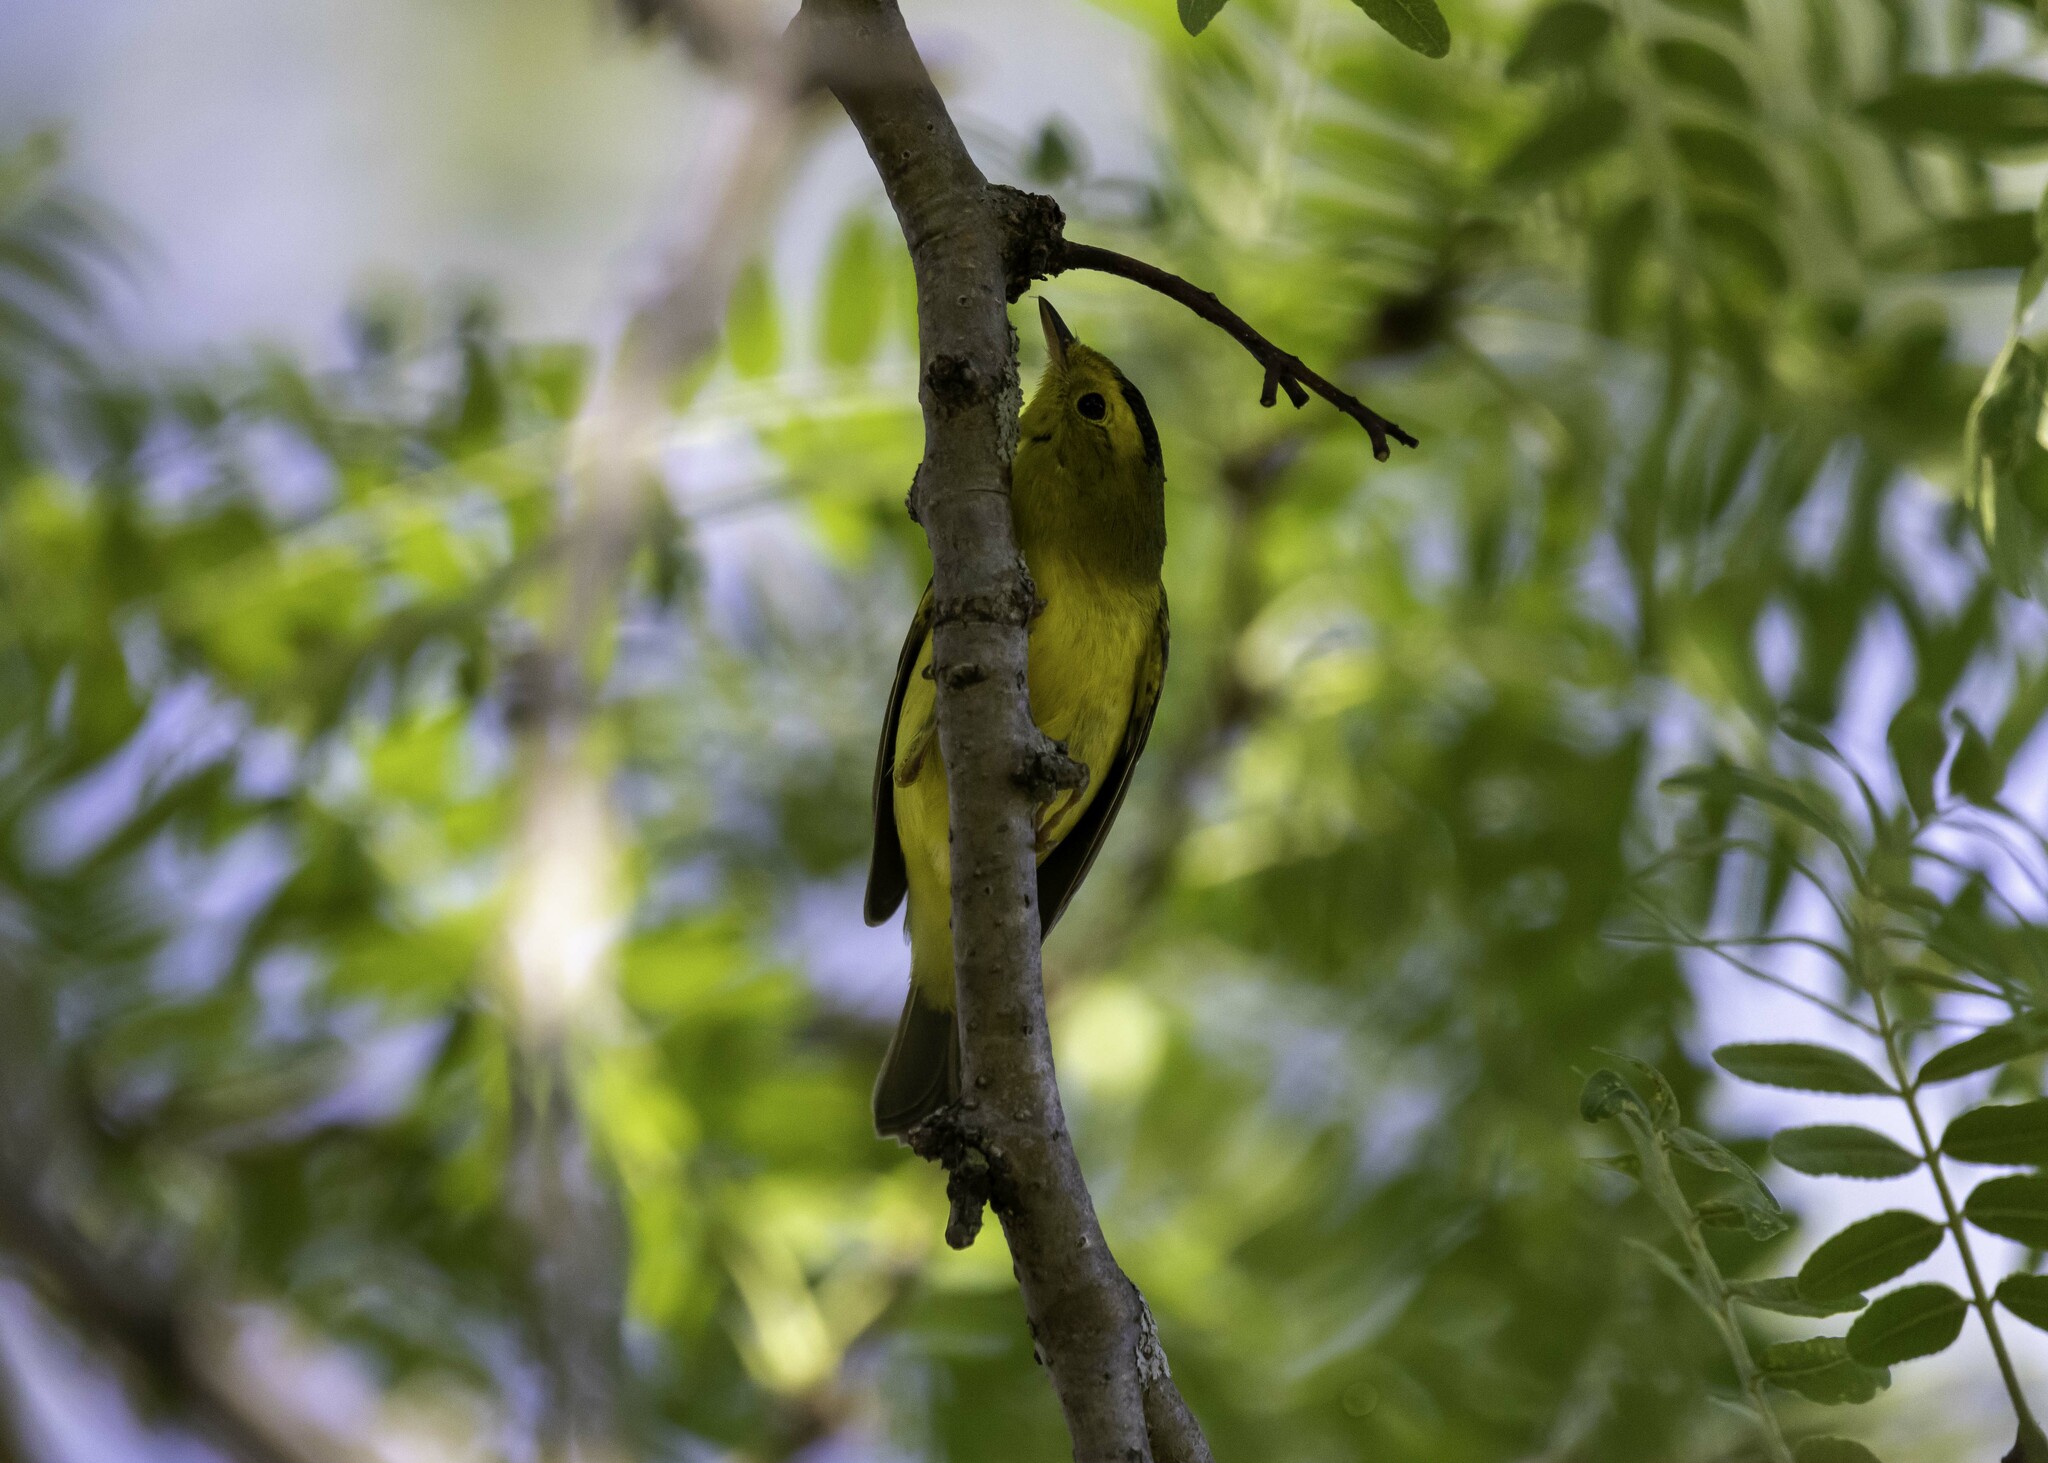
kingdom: Animalia
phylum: Chordata
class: Aves
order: Passeriformes
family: Parulidae
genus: Cardellina
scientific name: Cardellina pusilla
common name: Wilson's warbler
